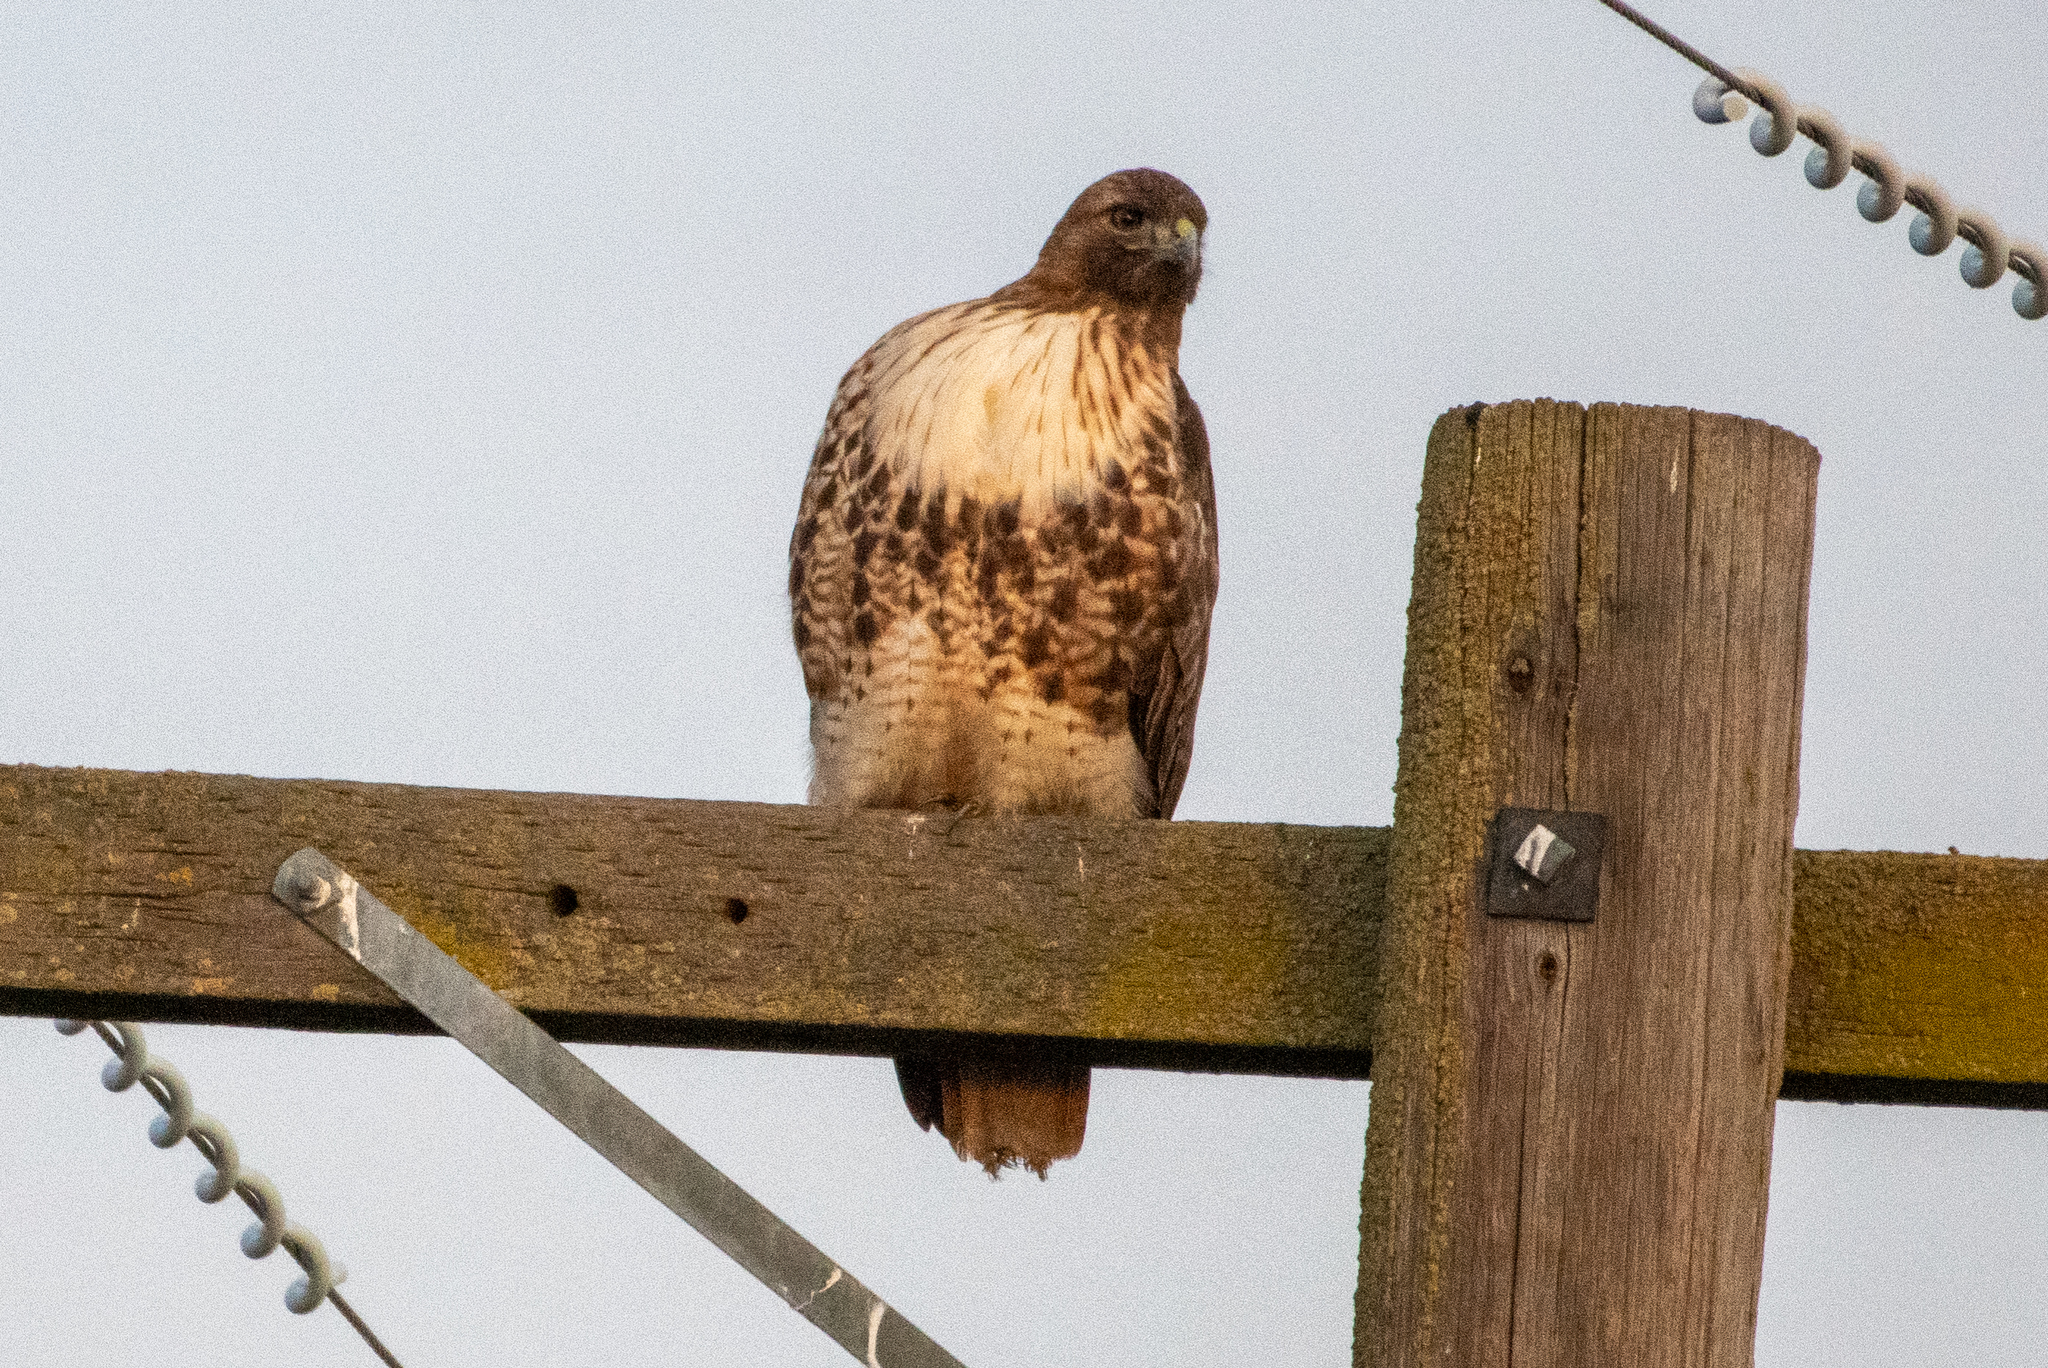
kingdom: Animalia
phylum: Chordata
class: Aves
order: Accipitriformes
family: Accipitridae
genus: Buteo
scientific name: Buteo jamaicensis
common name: Red-tailed hawk
